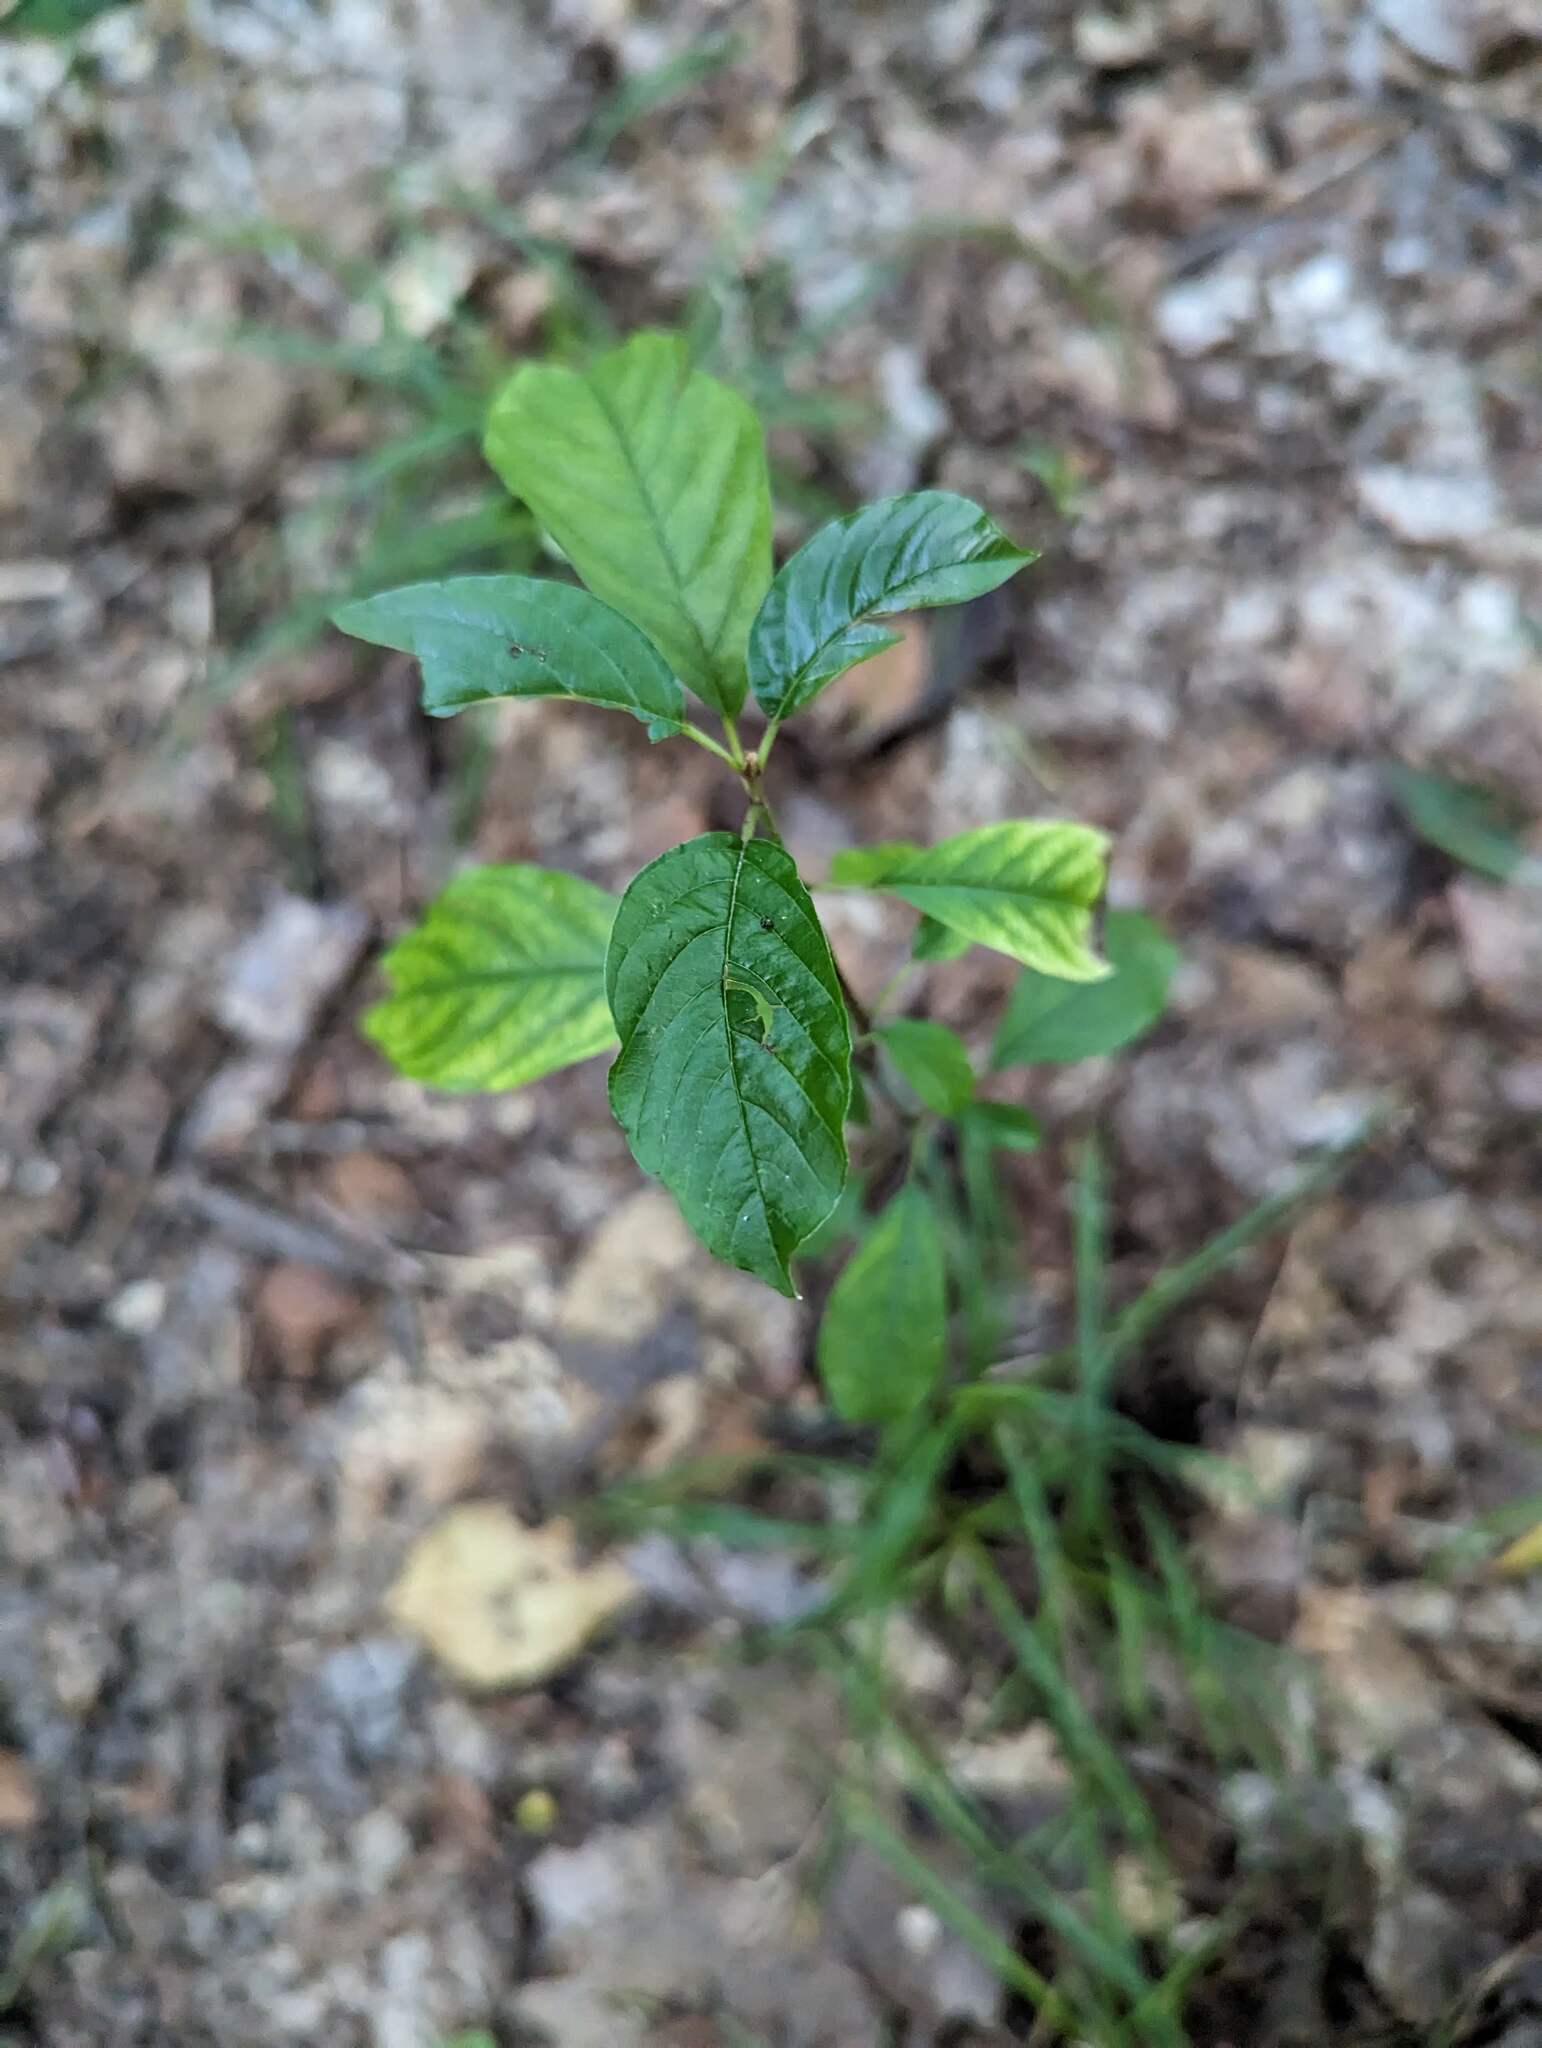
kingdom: Plantae
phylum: Tracheophyta
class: Magnoliopsida
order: Rosales
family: Rhamnaceae
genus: Frangula
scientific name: Frangula alnus
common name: Alder buckthorn
